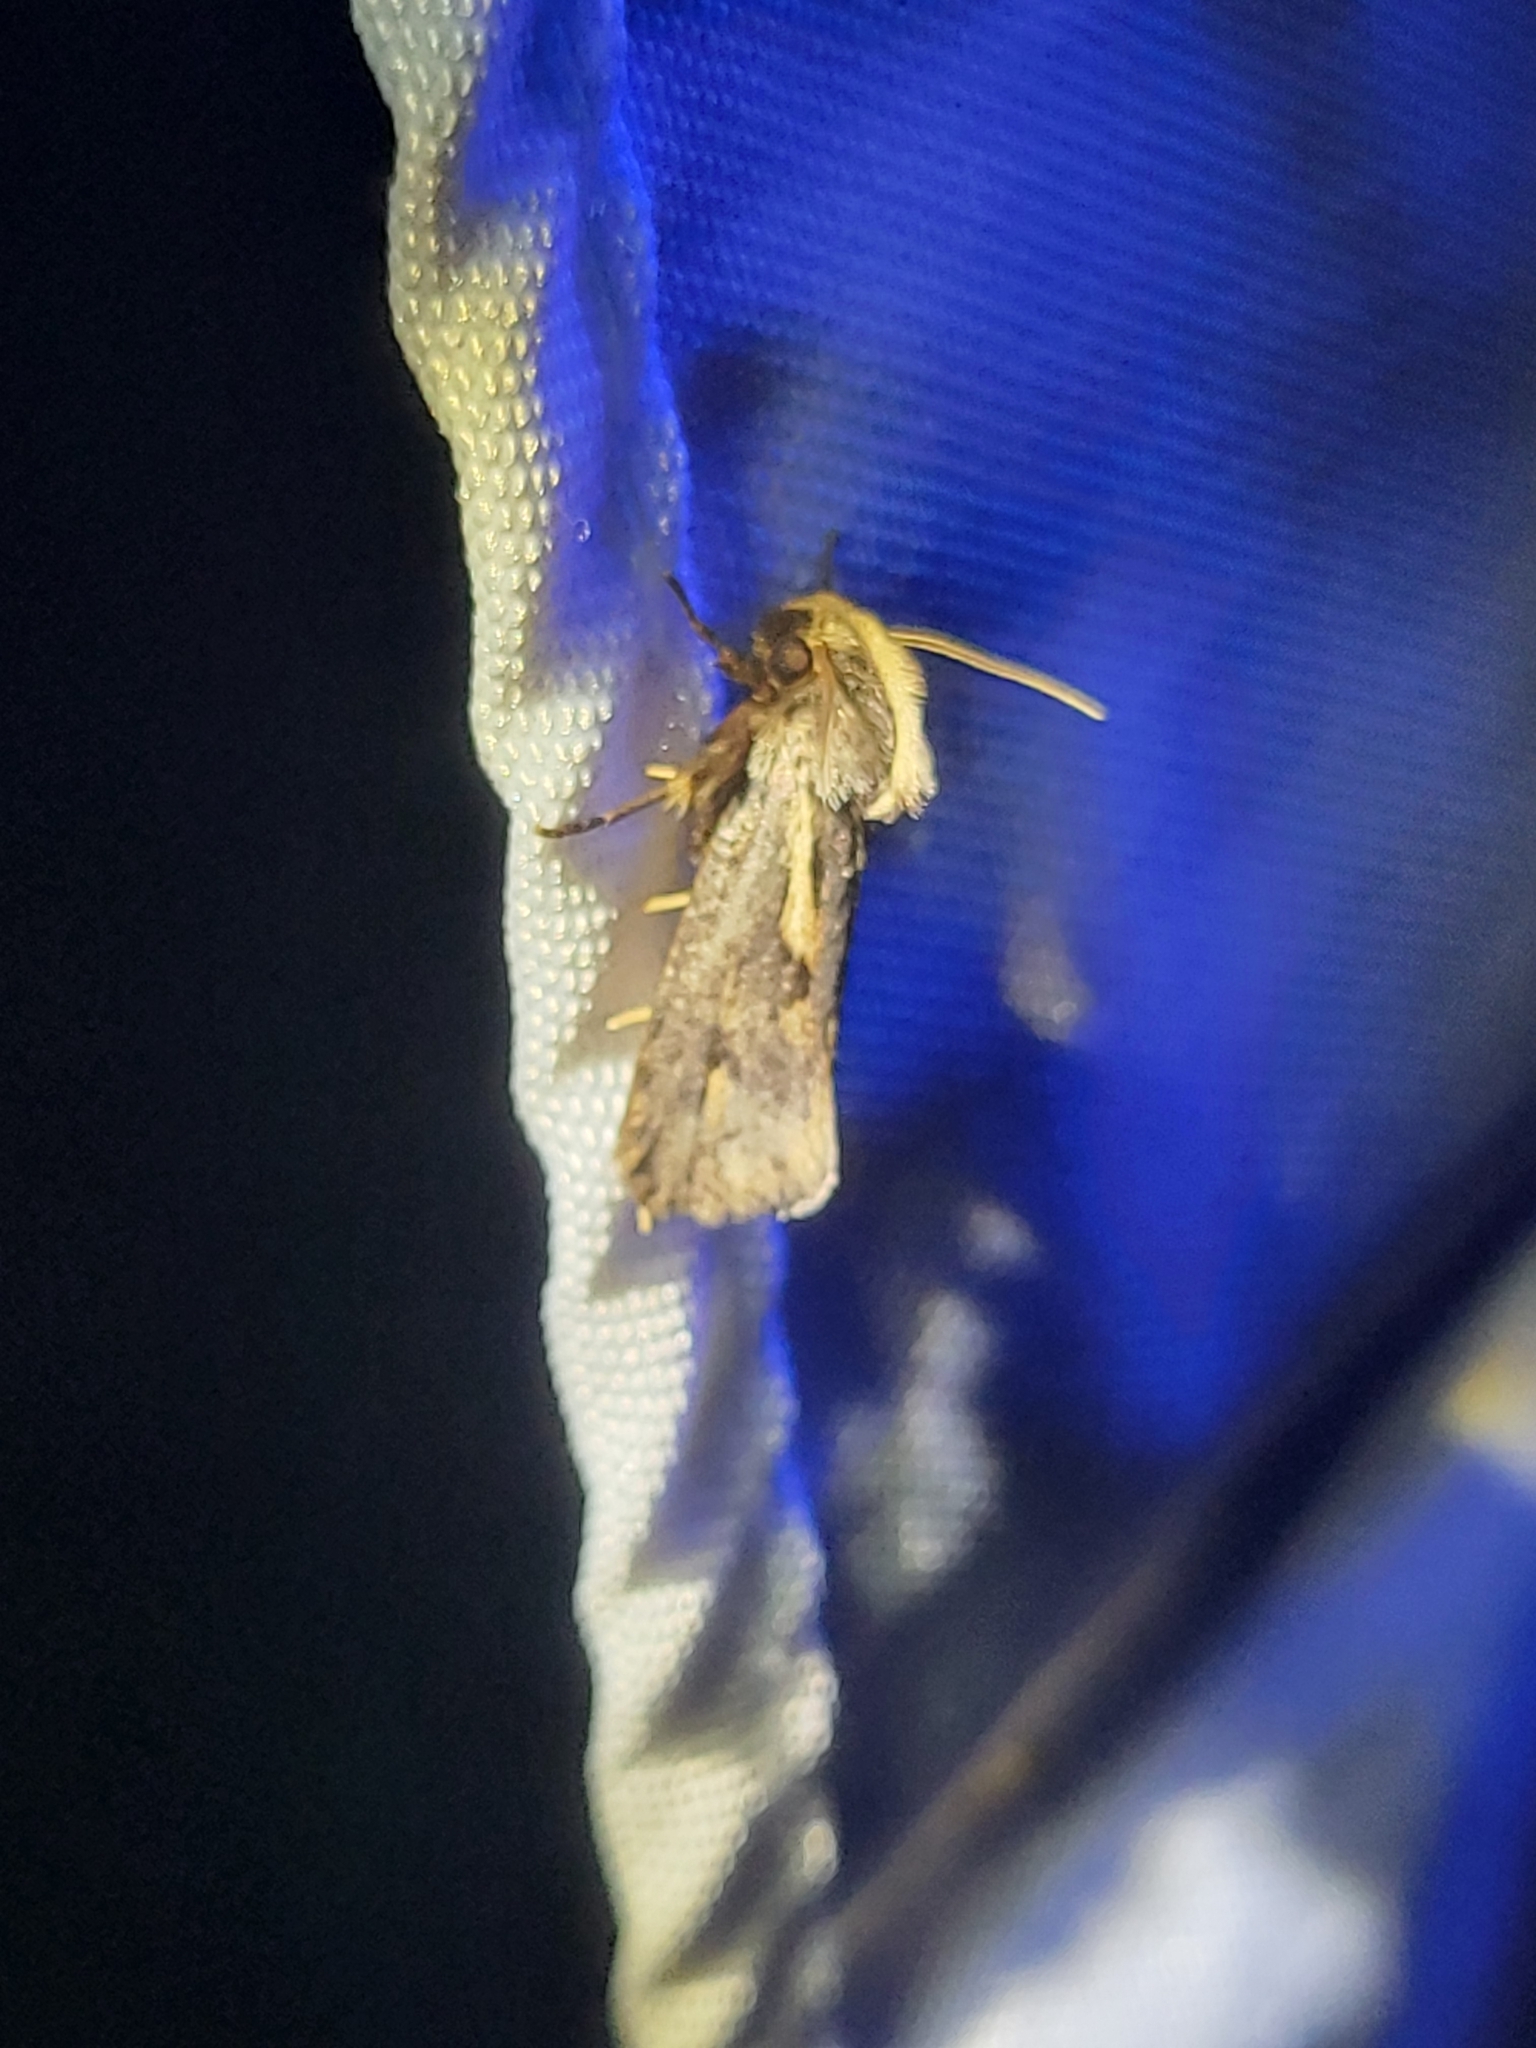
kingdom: Animalia
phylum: Arthropoda
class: Insecta
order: Lepidoptera
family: Tineidae
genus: Acrolophus
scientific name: Acrolophus popeanella
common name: Clemens' grass tubeworm moth
